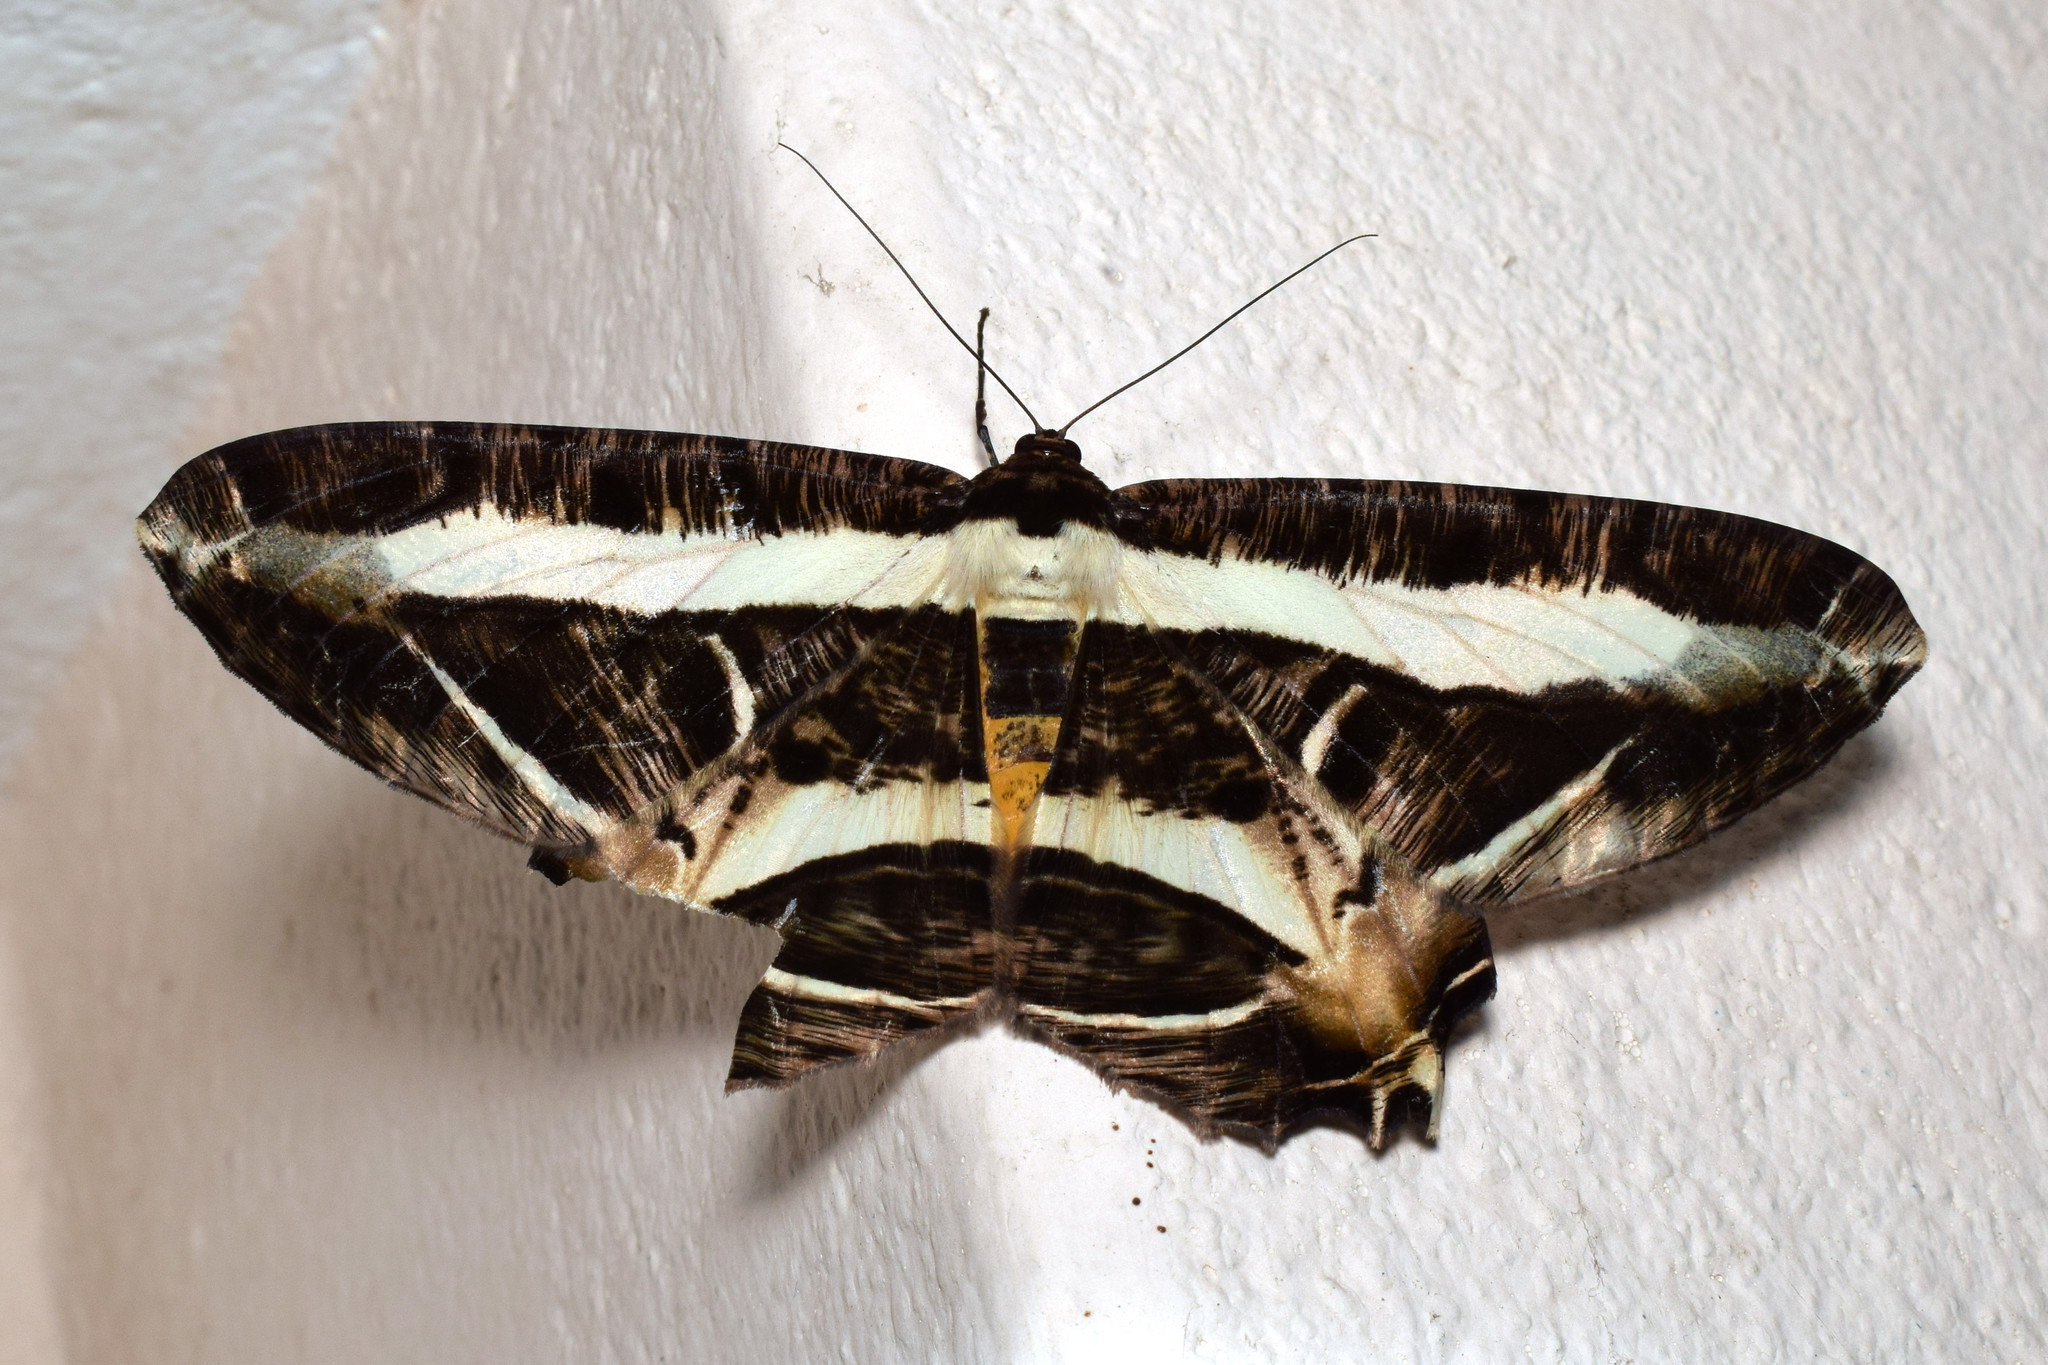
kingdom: Animalia
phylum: Arthropoda
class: Insecta
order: Lepidoptera
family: Geometridae
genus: Chorodna
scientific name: Chorodna fulgurita
